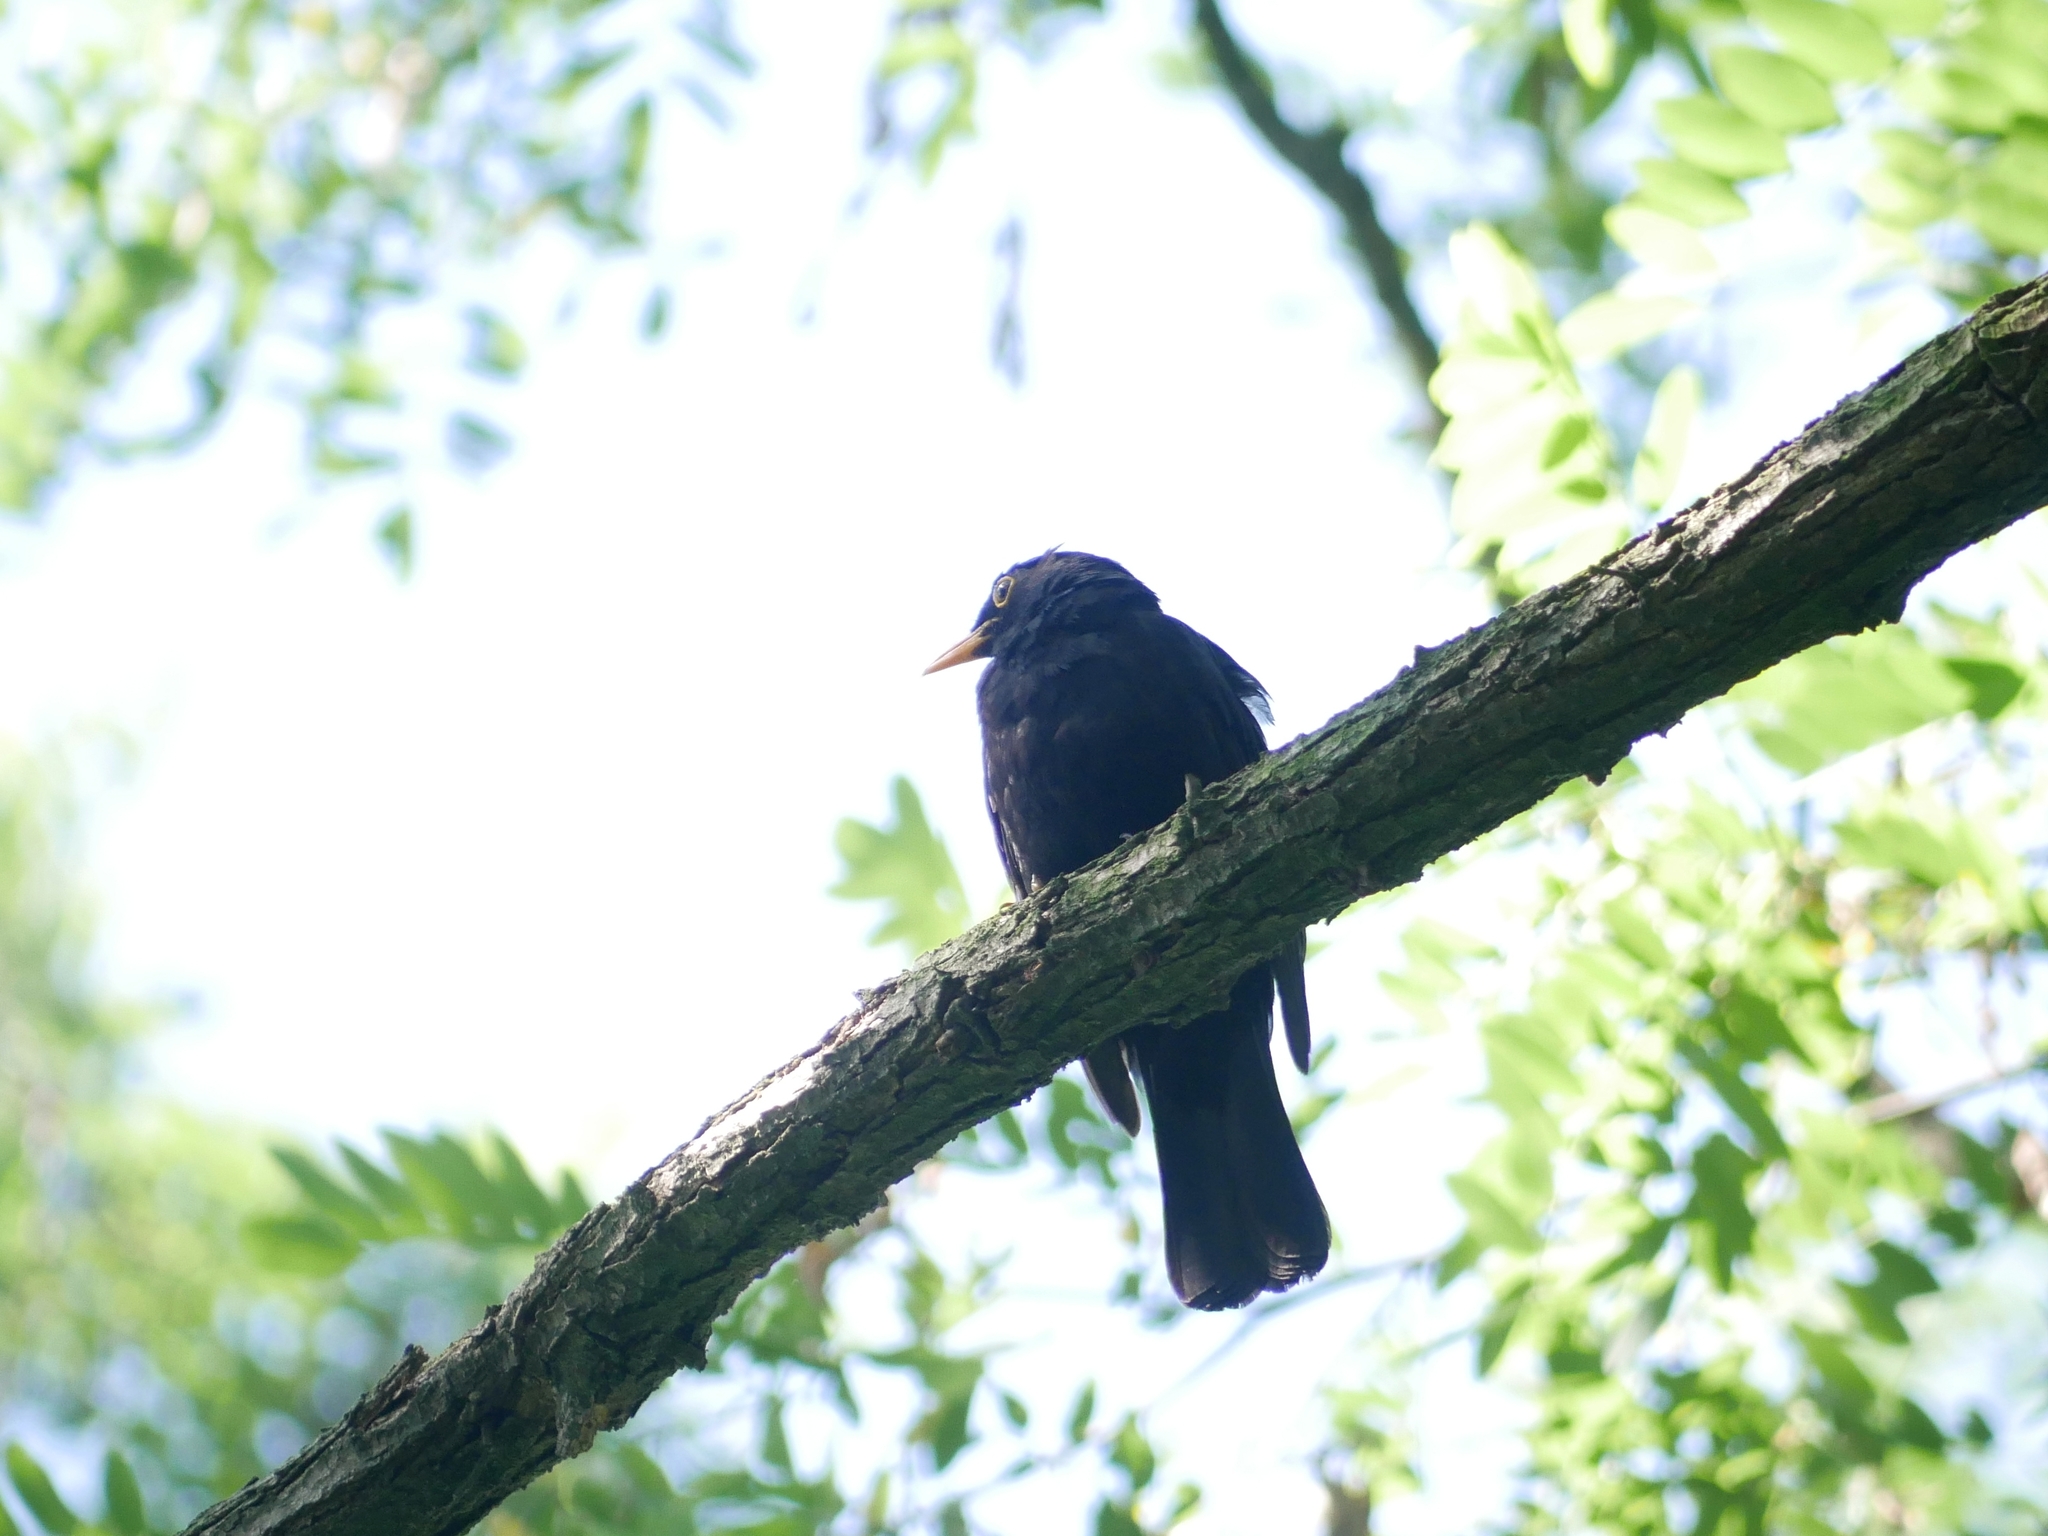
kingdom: Animalia
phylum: Chordata
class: Aves
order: Passeriformes
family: Turdidae
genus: Turdus
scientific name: Turdus merula
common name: Common blackbird
